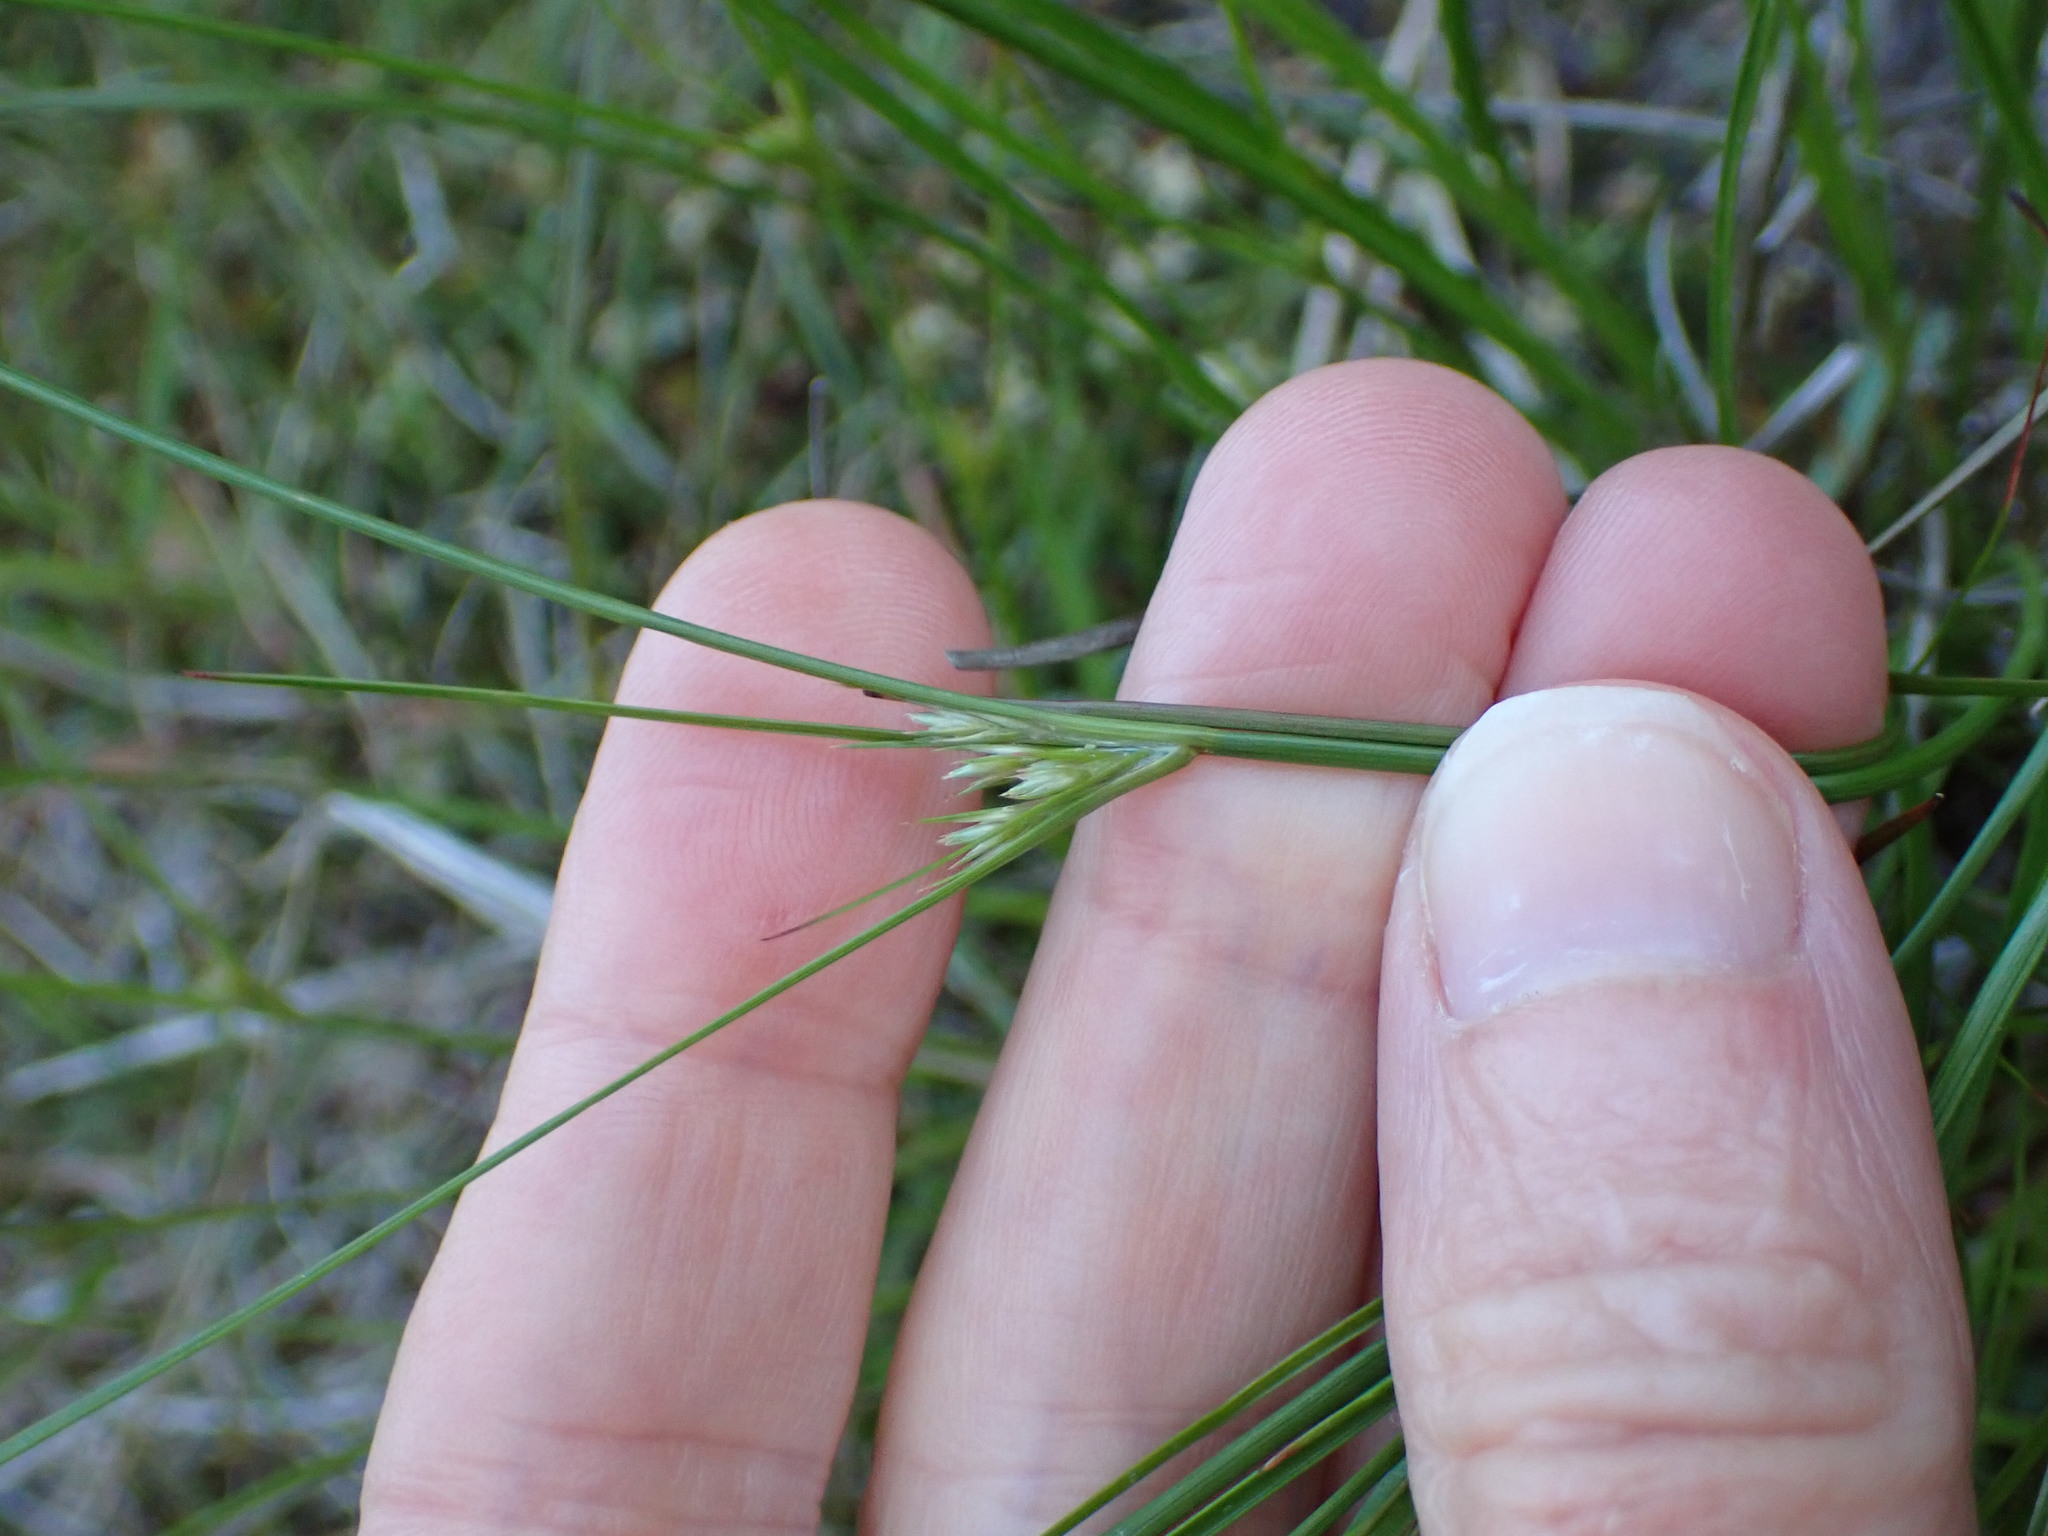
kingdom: Plantae
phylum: Tracheophyta
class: Liliopsida
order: Poales
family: Juncaceae
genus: Juncus
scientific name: Juncus tenuis
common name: Slender rush
